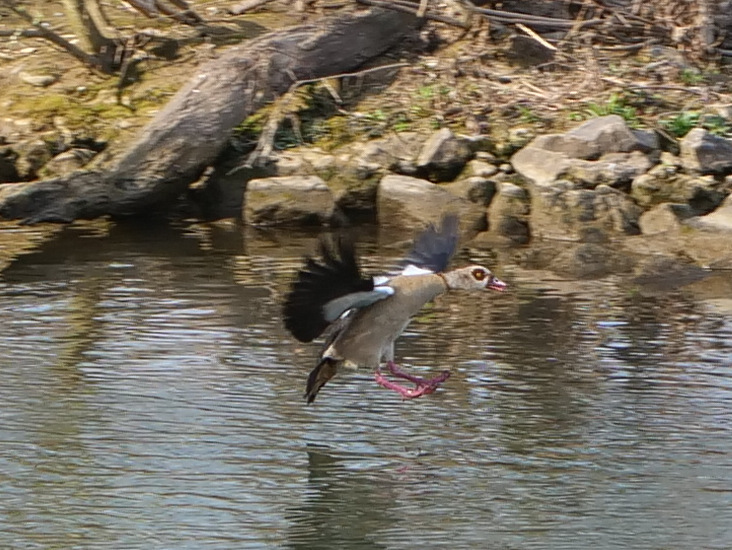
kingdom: Animalia
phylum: Chordata
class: Aves
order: Anseriformes
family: Anatidae
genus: Alopochen
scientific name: Alopochen aegyptiaca
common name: Egyptian goose
